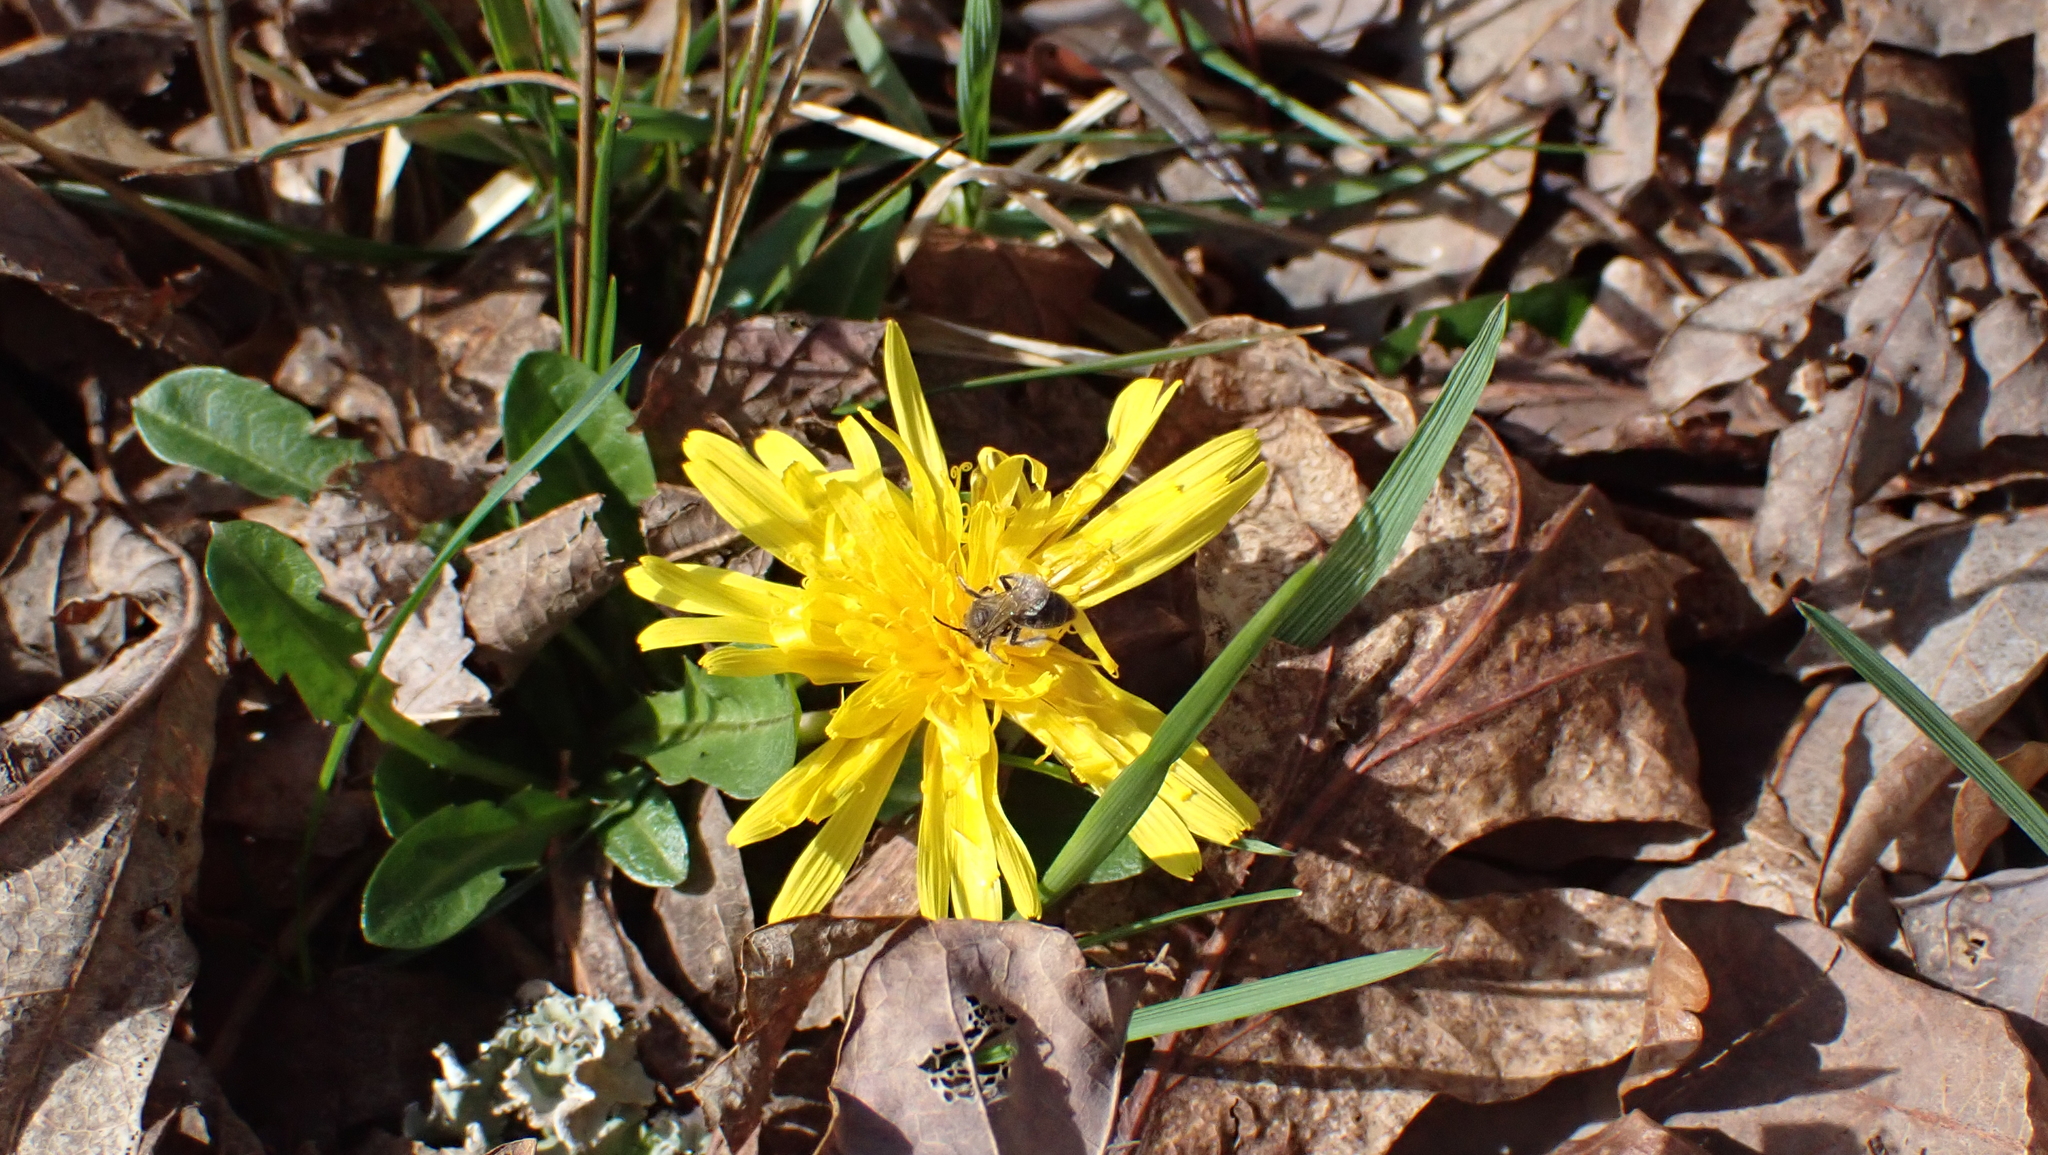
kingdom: Plantae
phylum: Tracheophyta
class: Magnoliopsida
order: Asterales
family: Asteraceae
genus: Taraxacum
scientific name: Taraxacum
